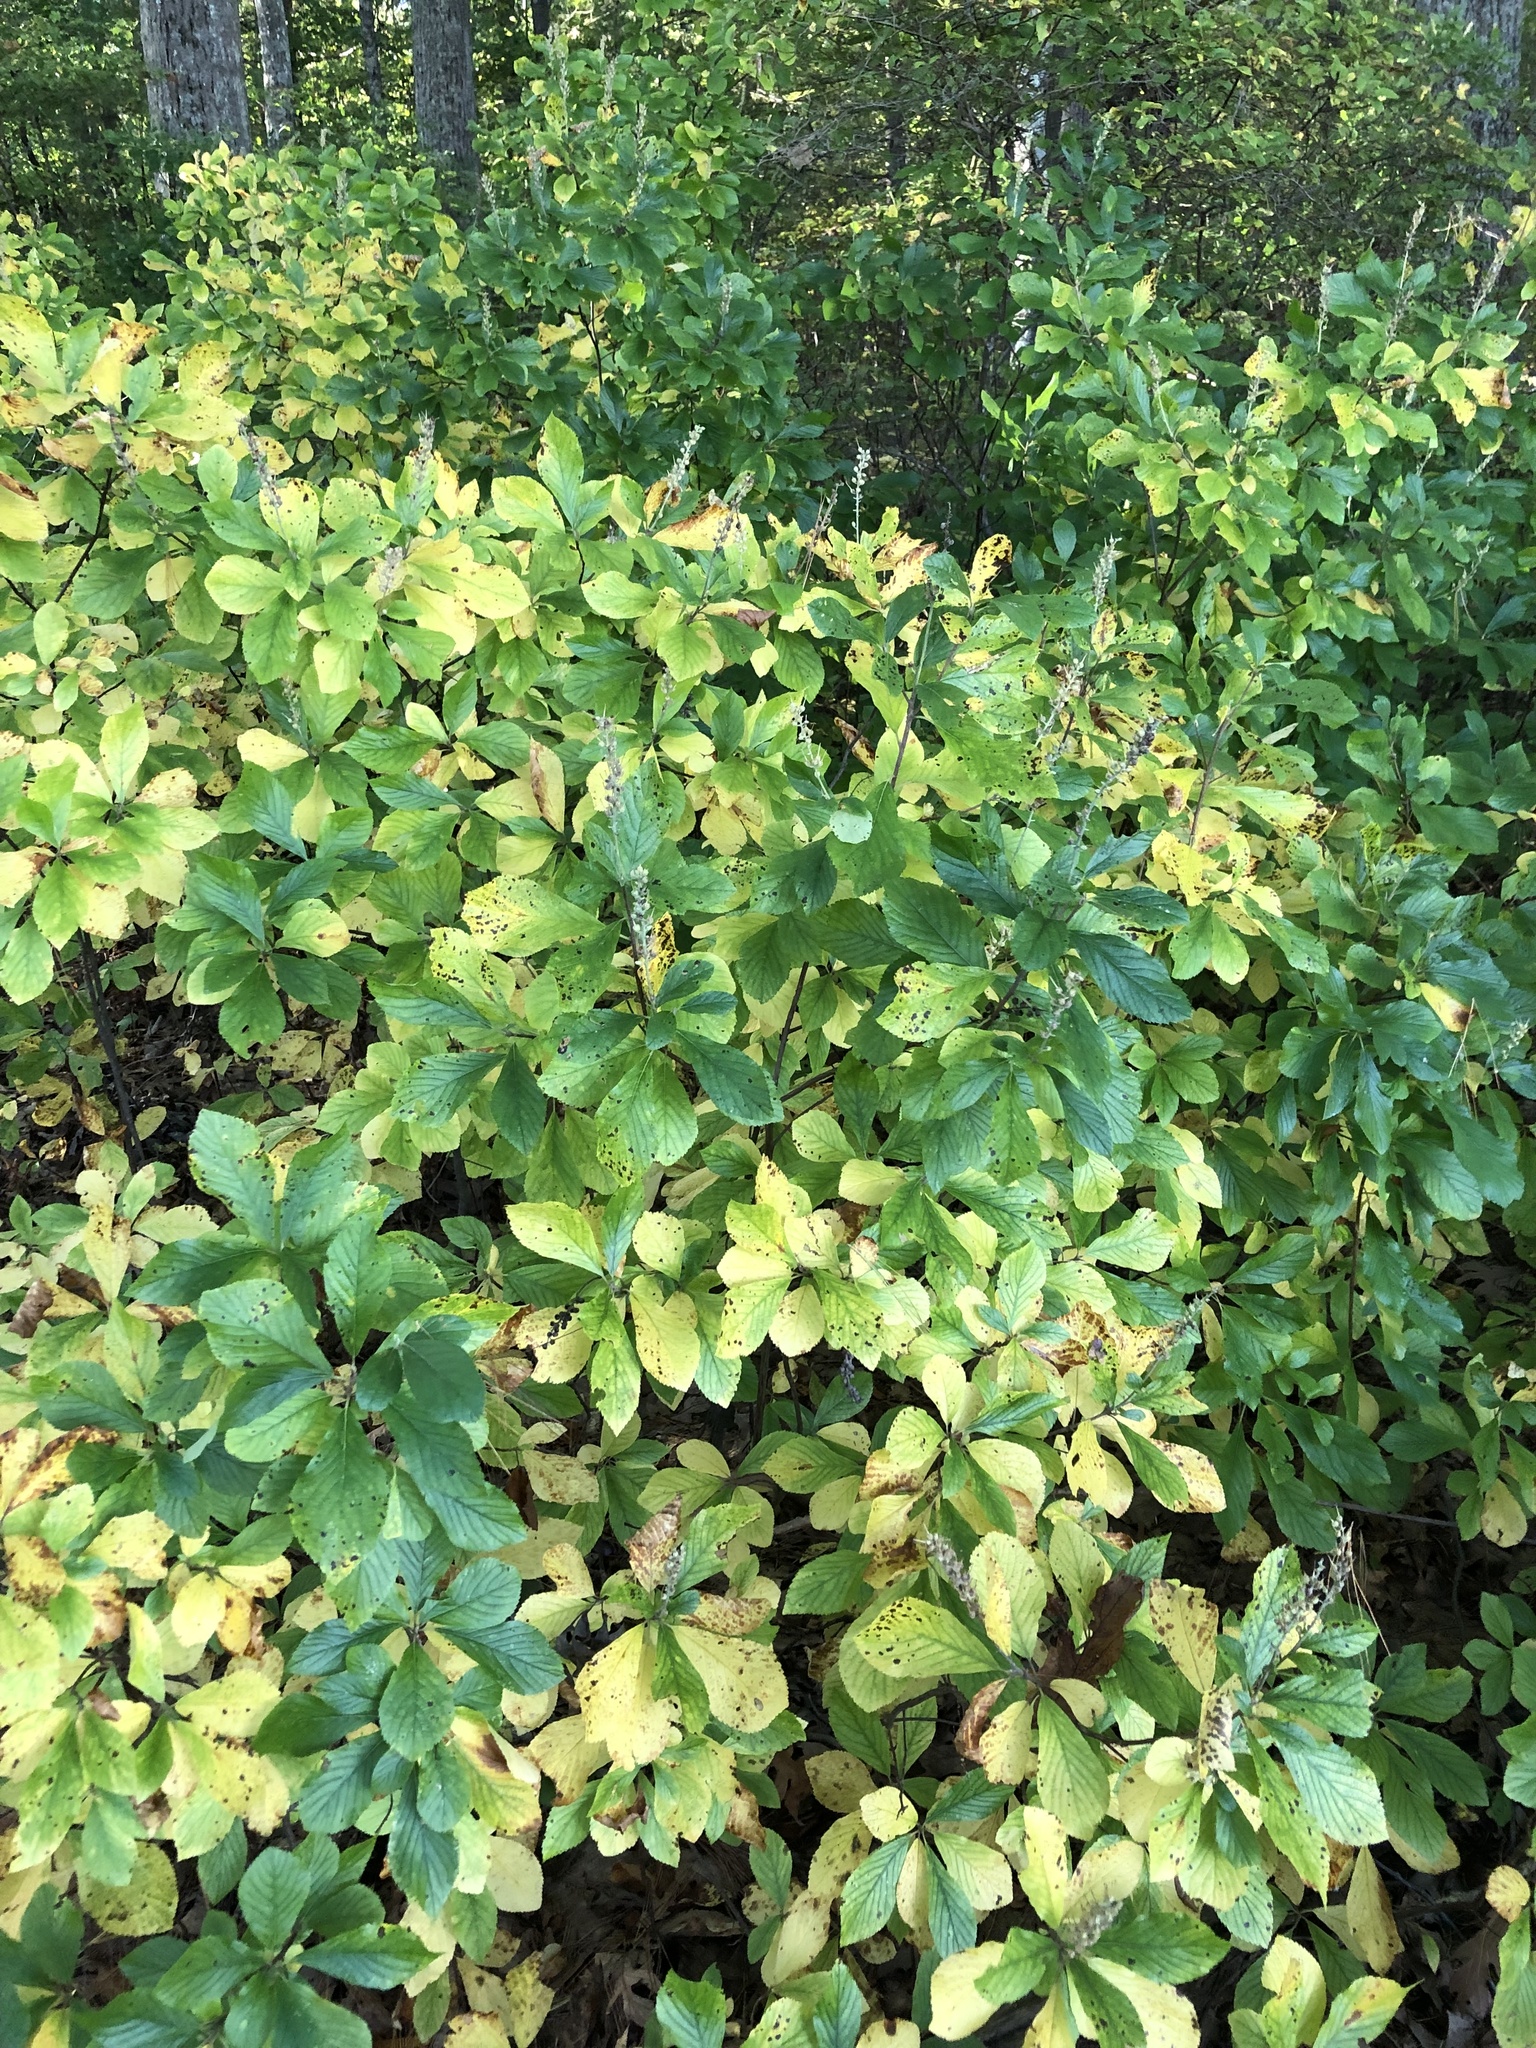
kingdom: Plantae
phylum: Tracheophyta
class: Magnoliopsida
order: Ericales
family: Clethraceae
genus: Clethra
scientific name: Clethra alnifolia
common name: Sweet pepperbush
